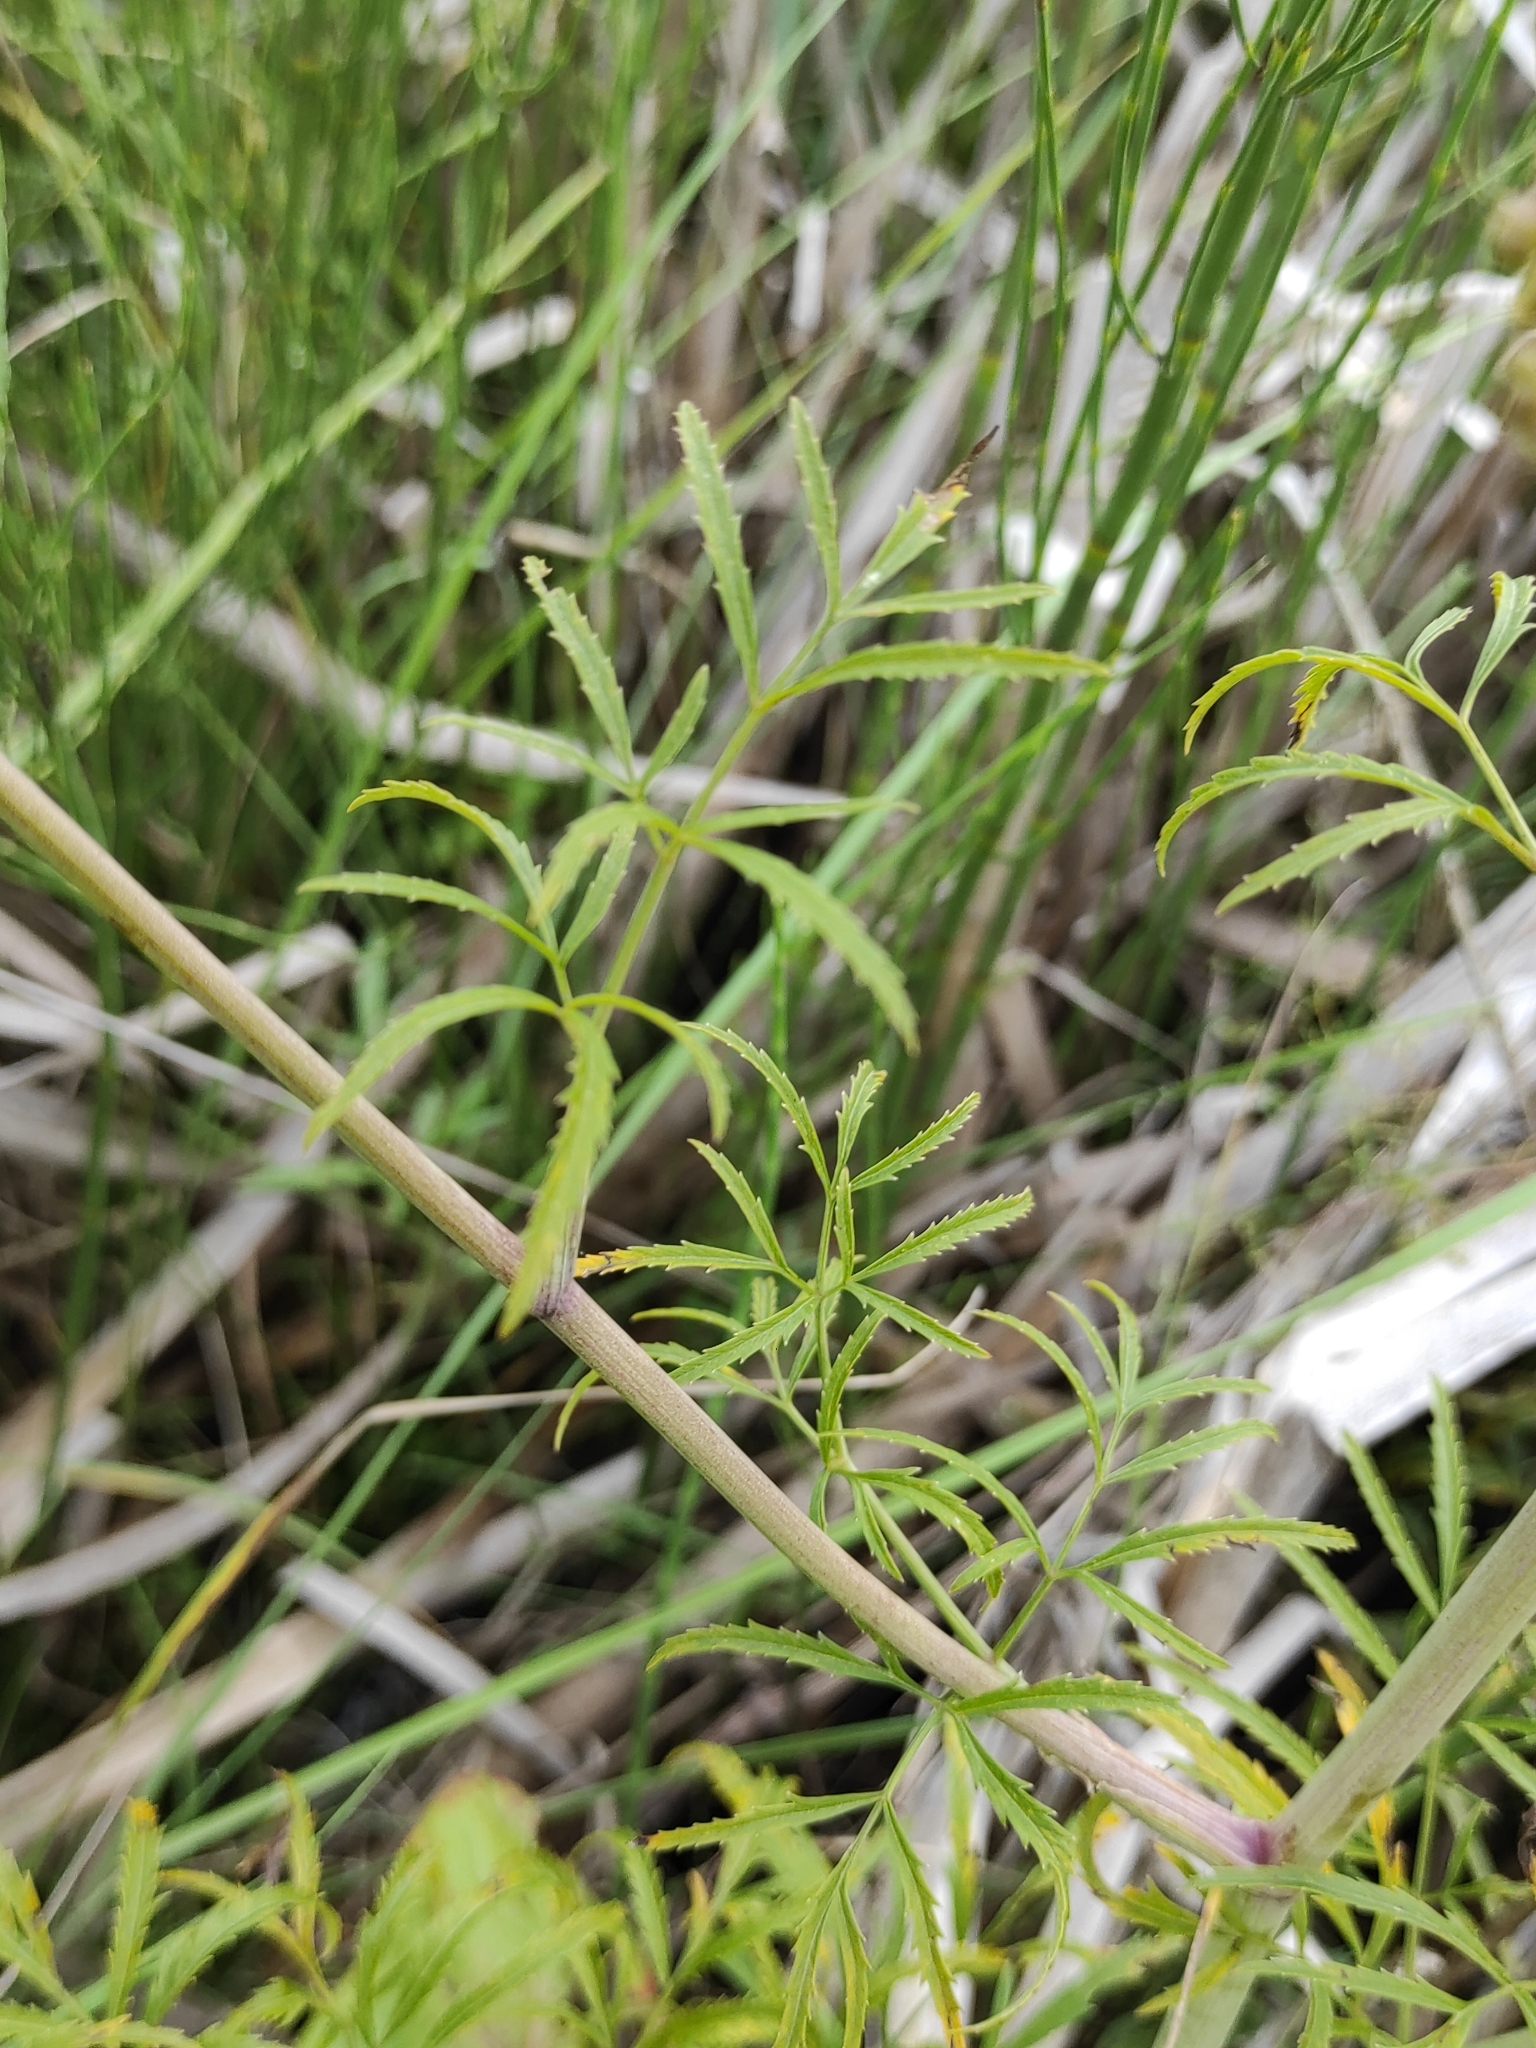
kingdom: Plantae
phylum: Tracheophyta
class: Magnoliopsida
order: Apiales
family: Apiaceae
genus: Cicuta
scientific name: Cicuta virosa
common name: Cowbane
